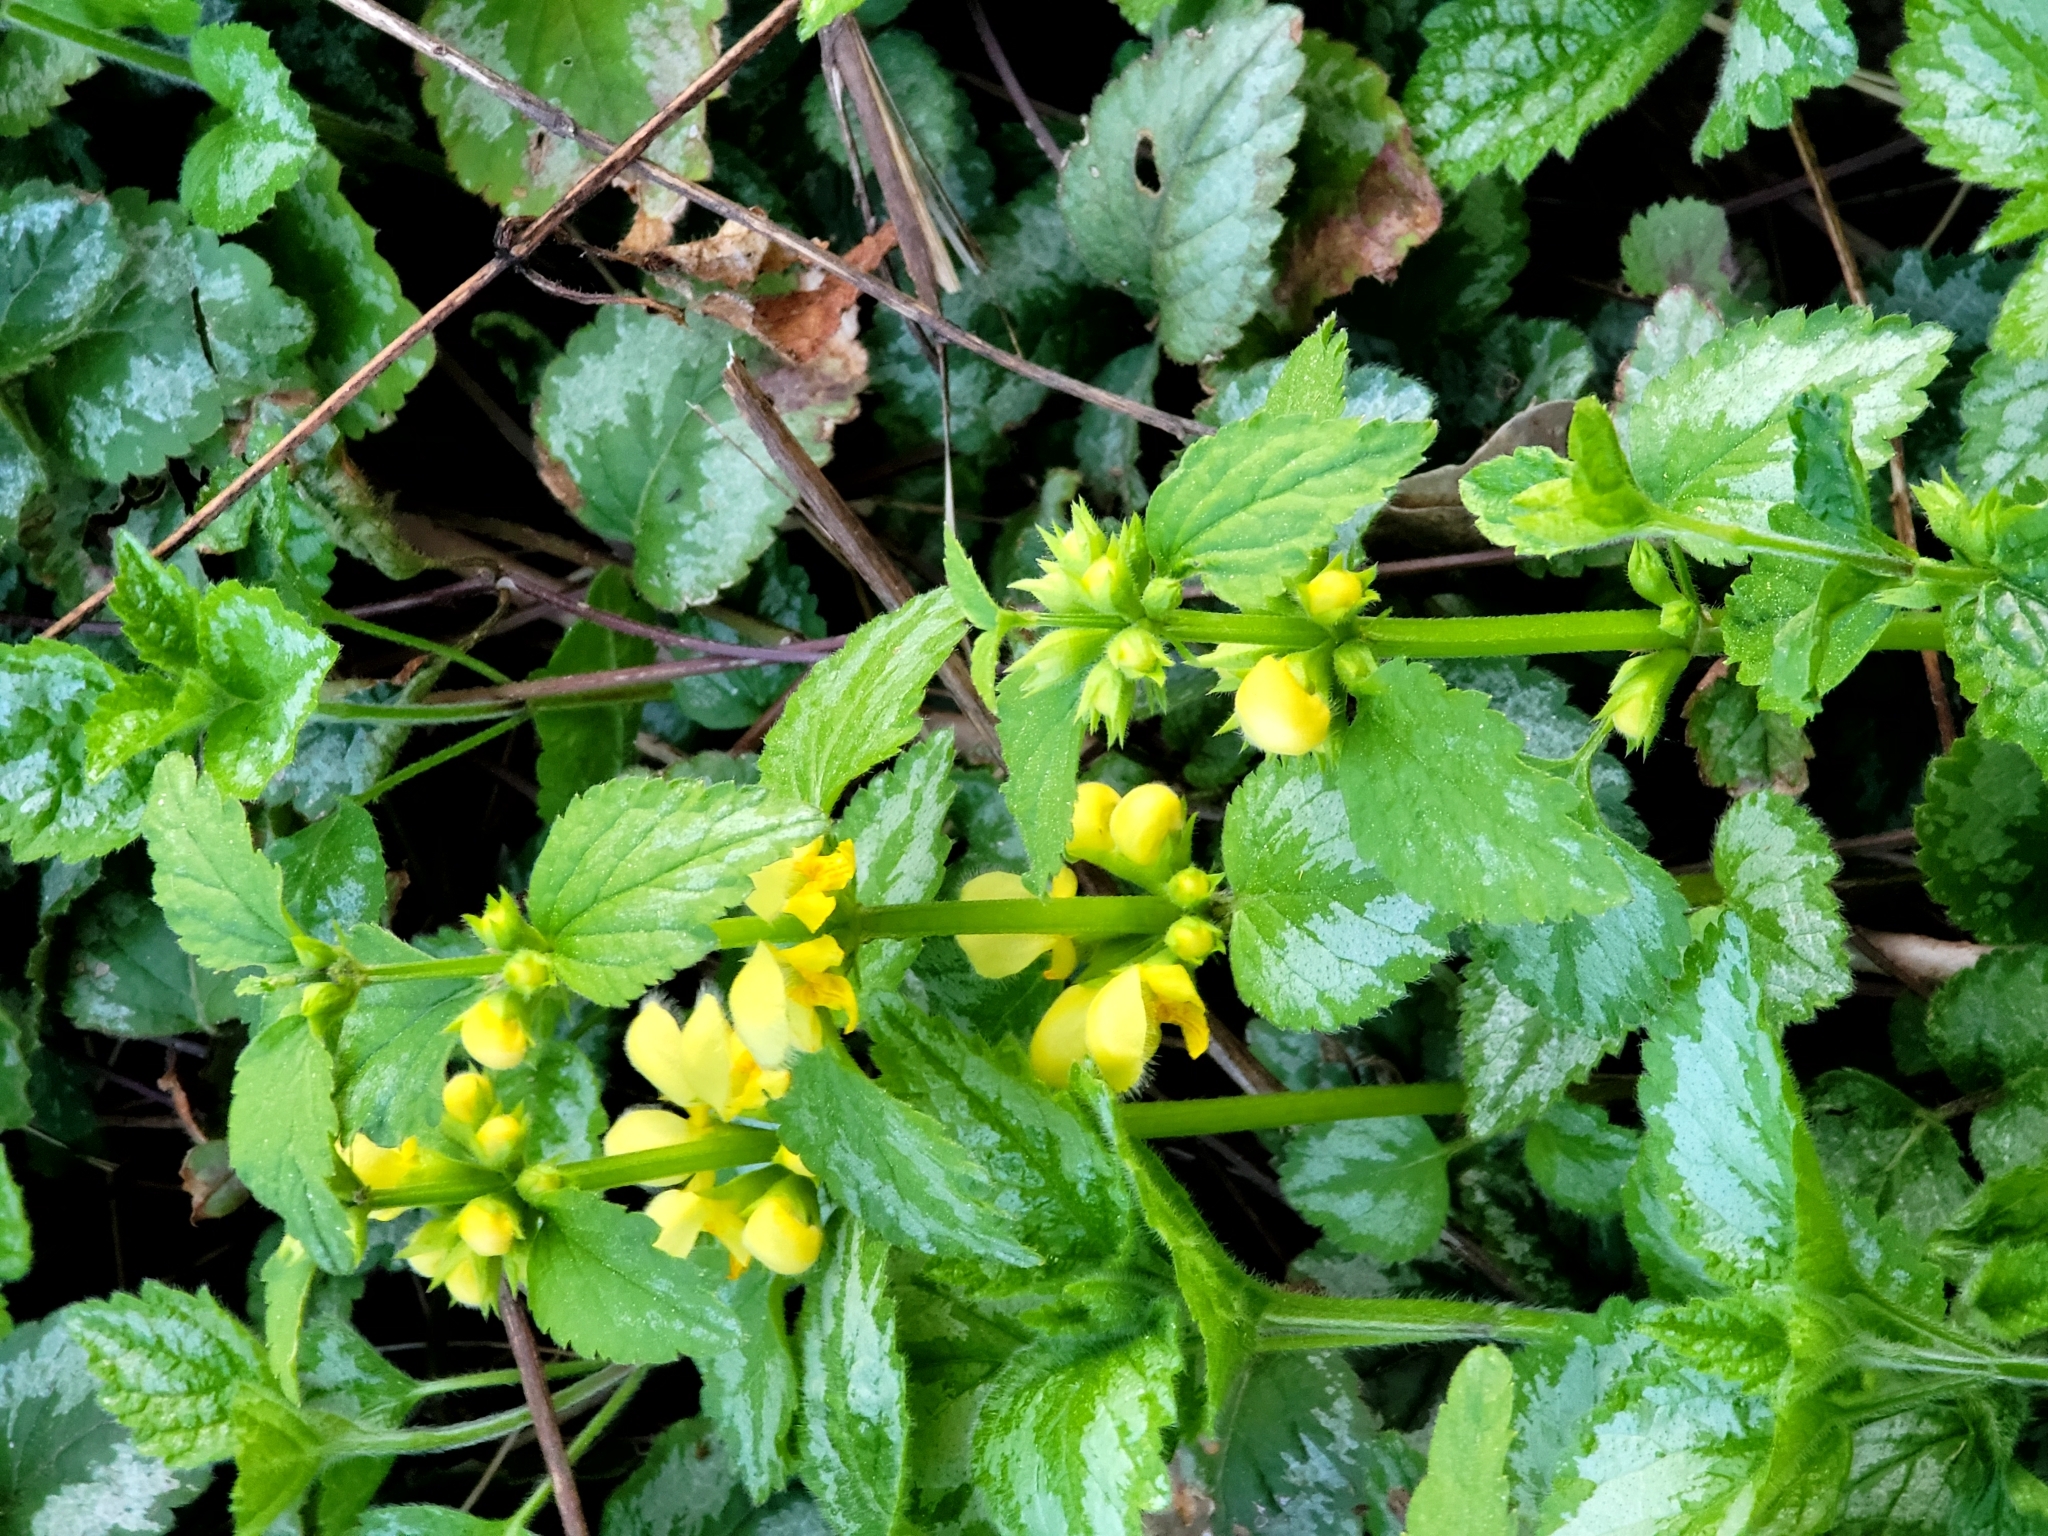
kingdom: Plantae
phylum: Tracheophyta
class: Magnoliopsida
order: Lamiales
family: Lamiaceae
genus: Lamium
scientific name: Lamium galeobdolon
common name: Yellow archangel
